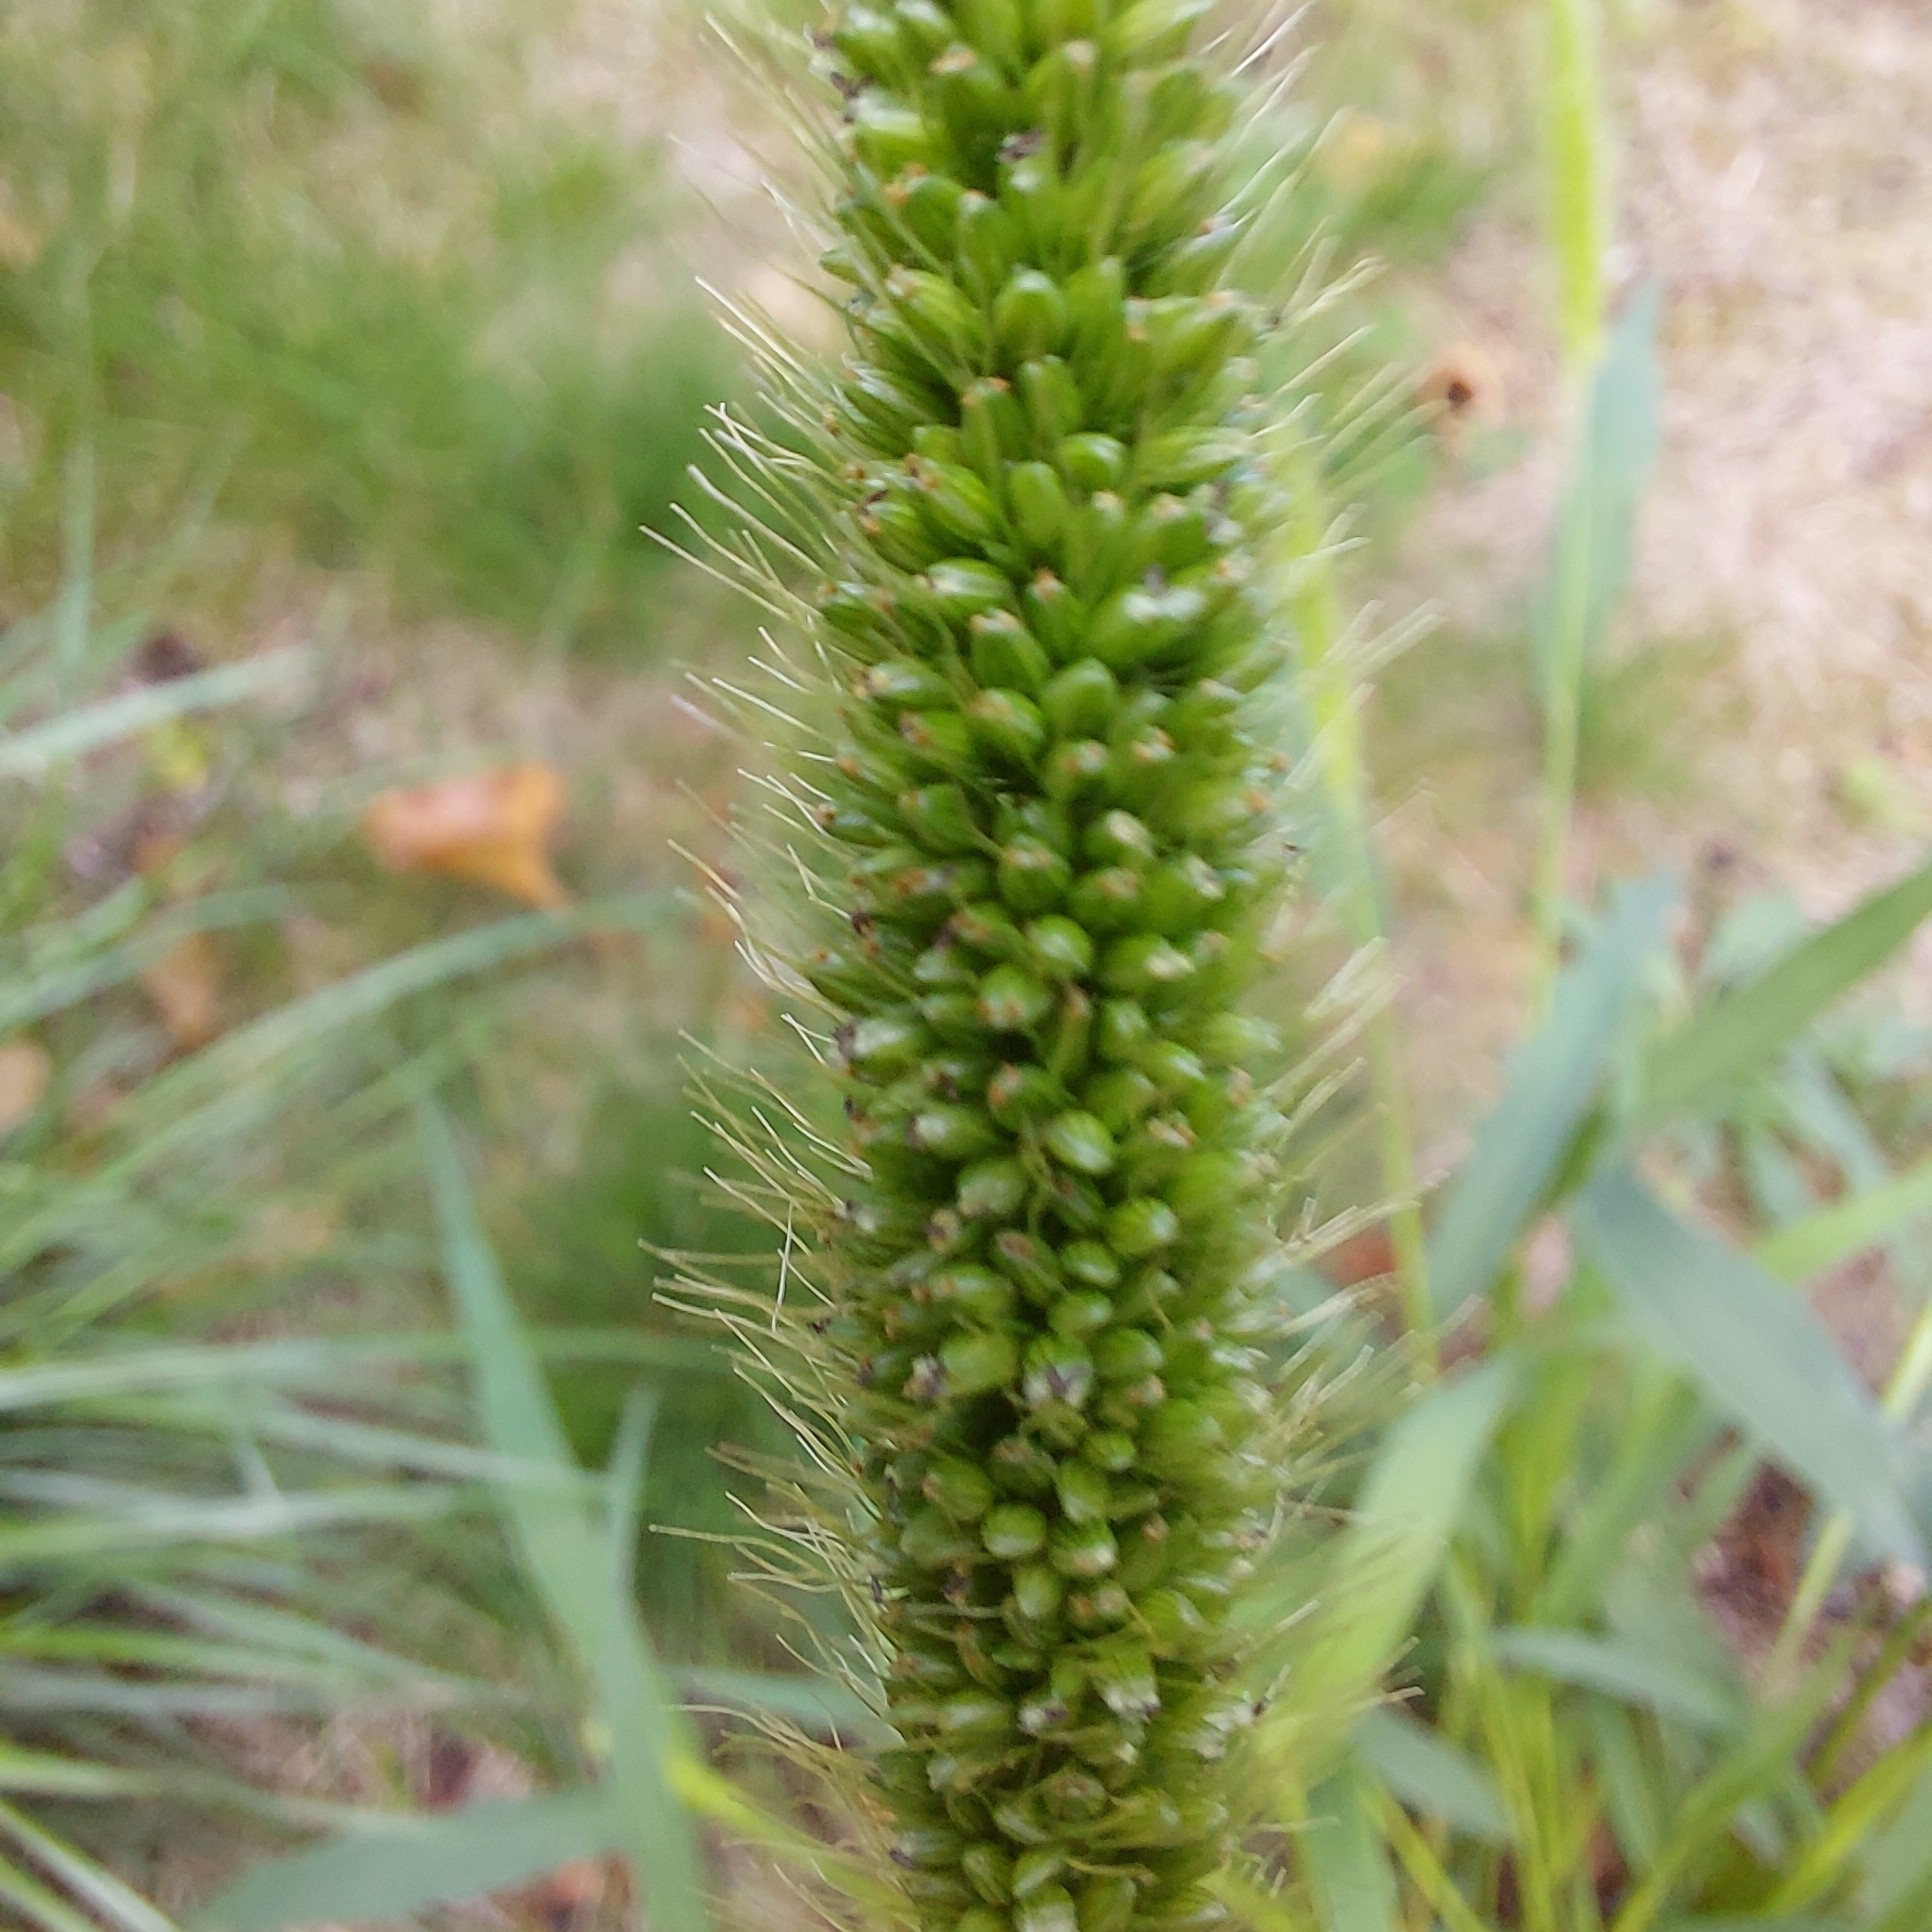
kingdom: Plantae
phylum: Tracheophyta
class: Liliopsida
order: Poales
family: Poaceae
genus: Setaria
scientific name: Setaria viridis
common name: Green bristlegrass
